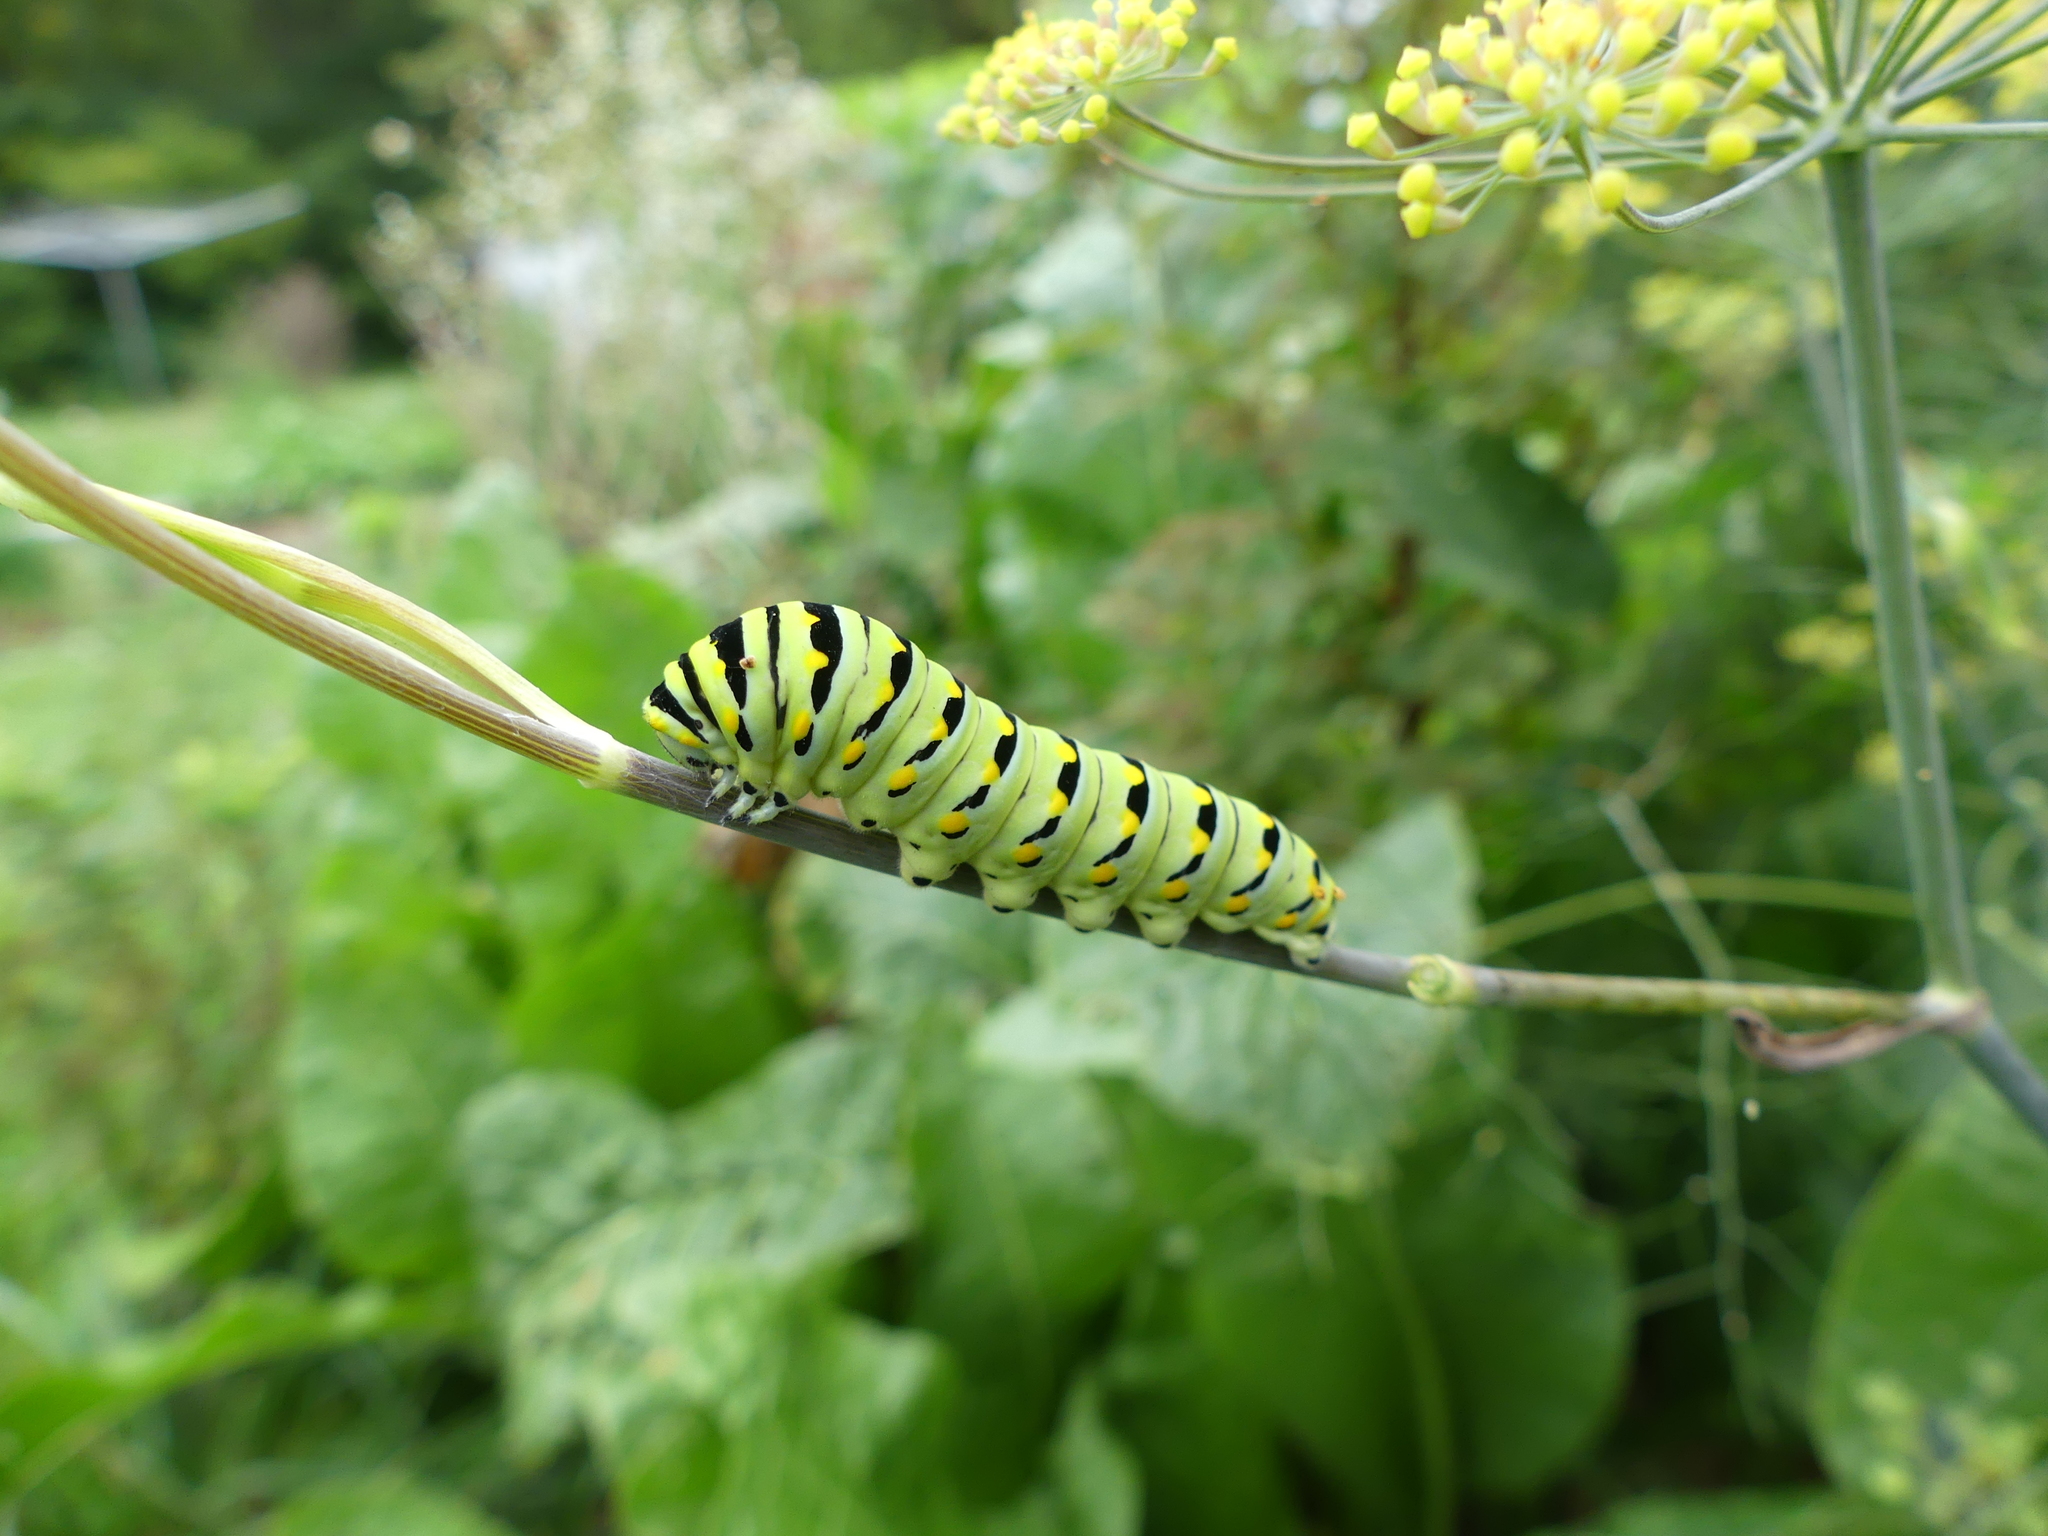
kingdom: Animalia
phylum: Arthropoda
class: Insecta
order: Lepidoptera
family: Papilionidae
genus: Papilio
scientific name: Papilio polyxenes
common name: Black swallowtail
